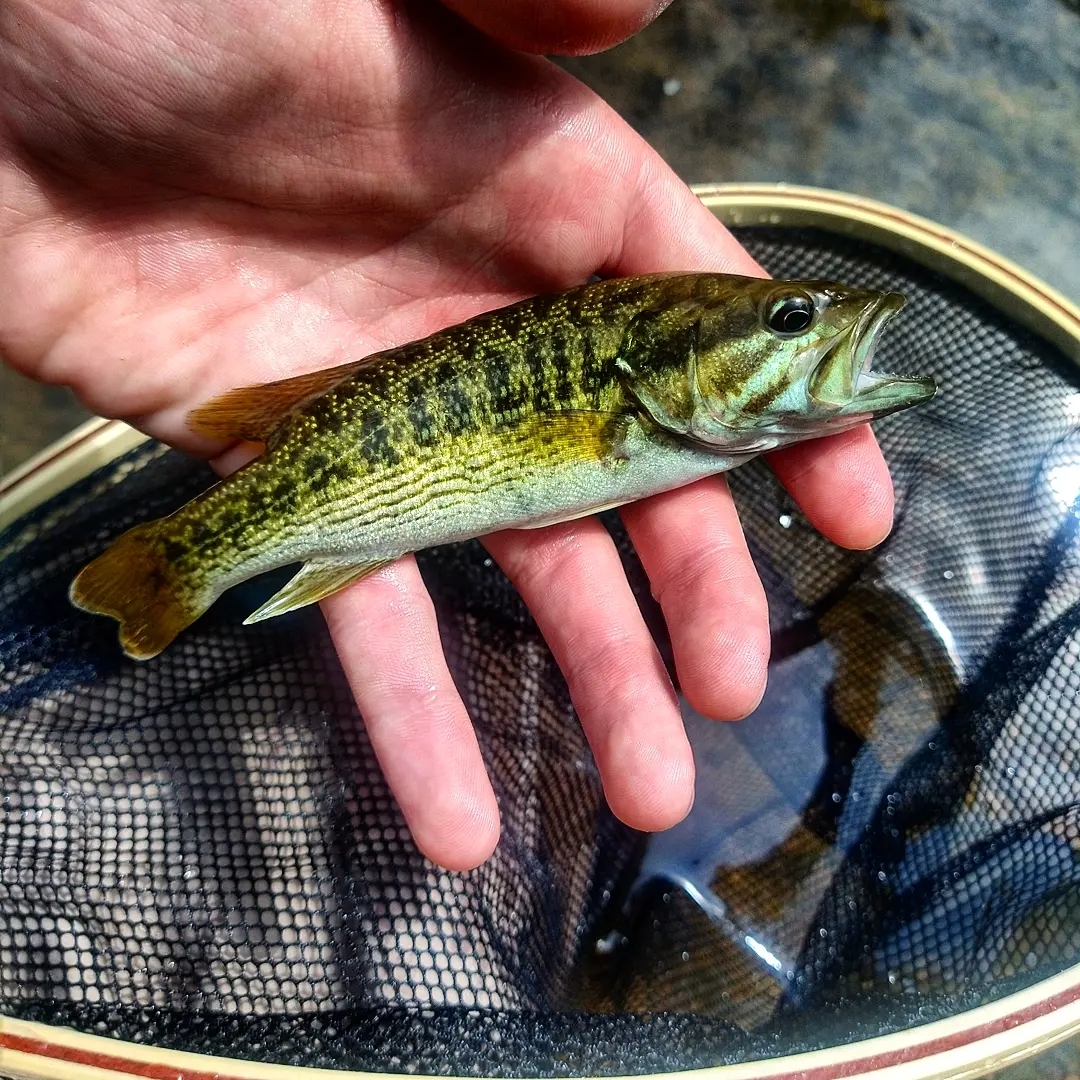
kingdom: Animalia
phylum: Chordata
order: Perciformes
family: Centrarchidae
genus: Micropterus
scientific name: Micropterus cahabae
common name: Cahaba bass
